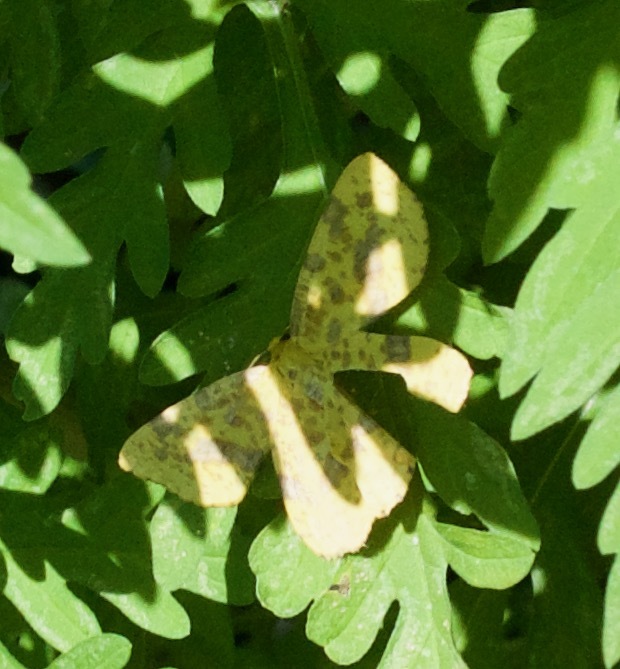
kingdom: Animalia
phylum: Arthropoda
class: Insecta
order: Lepidoptera
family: Geometridae
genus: Xanthotype
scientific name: Xanthotype
